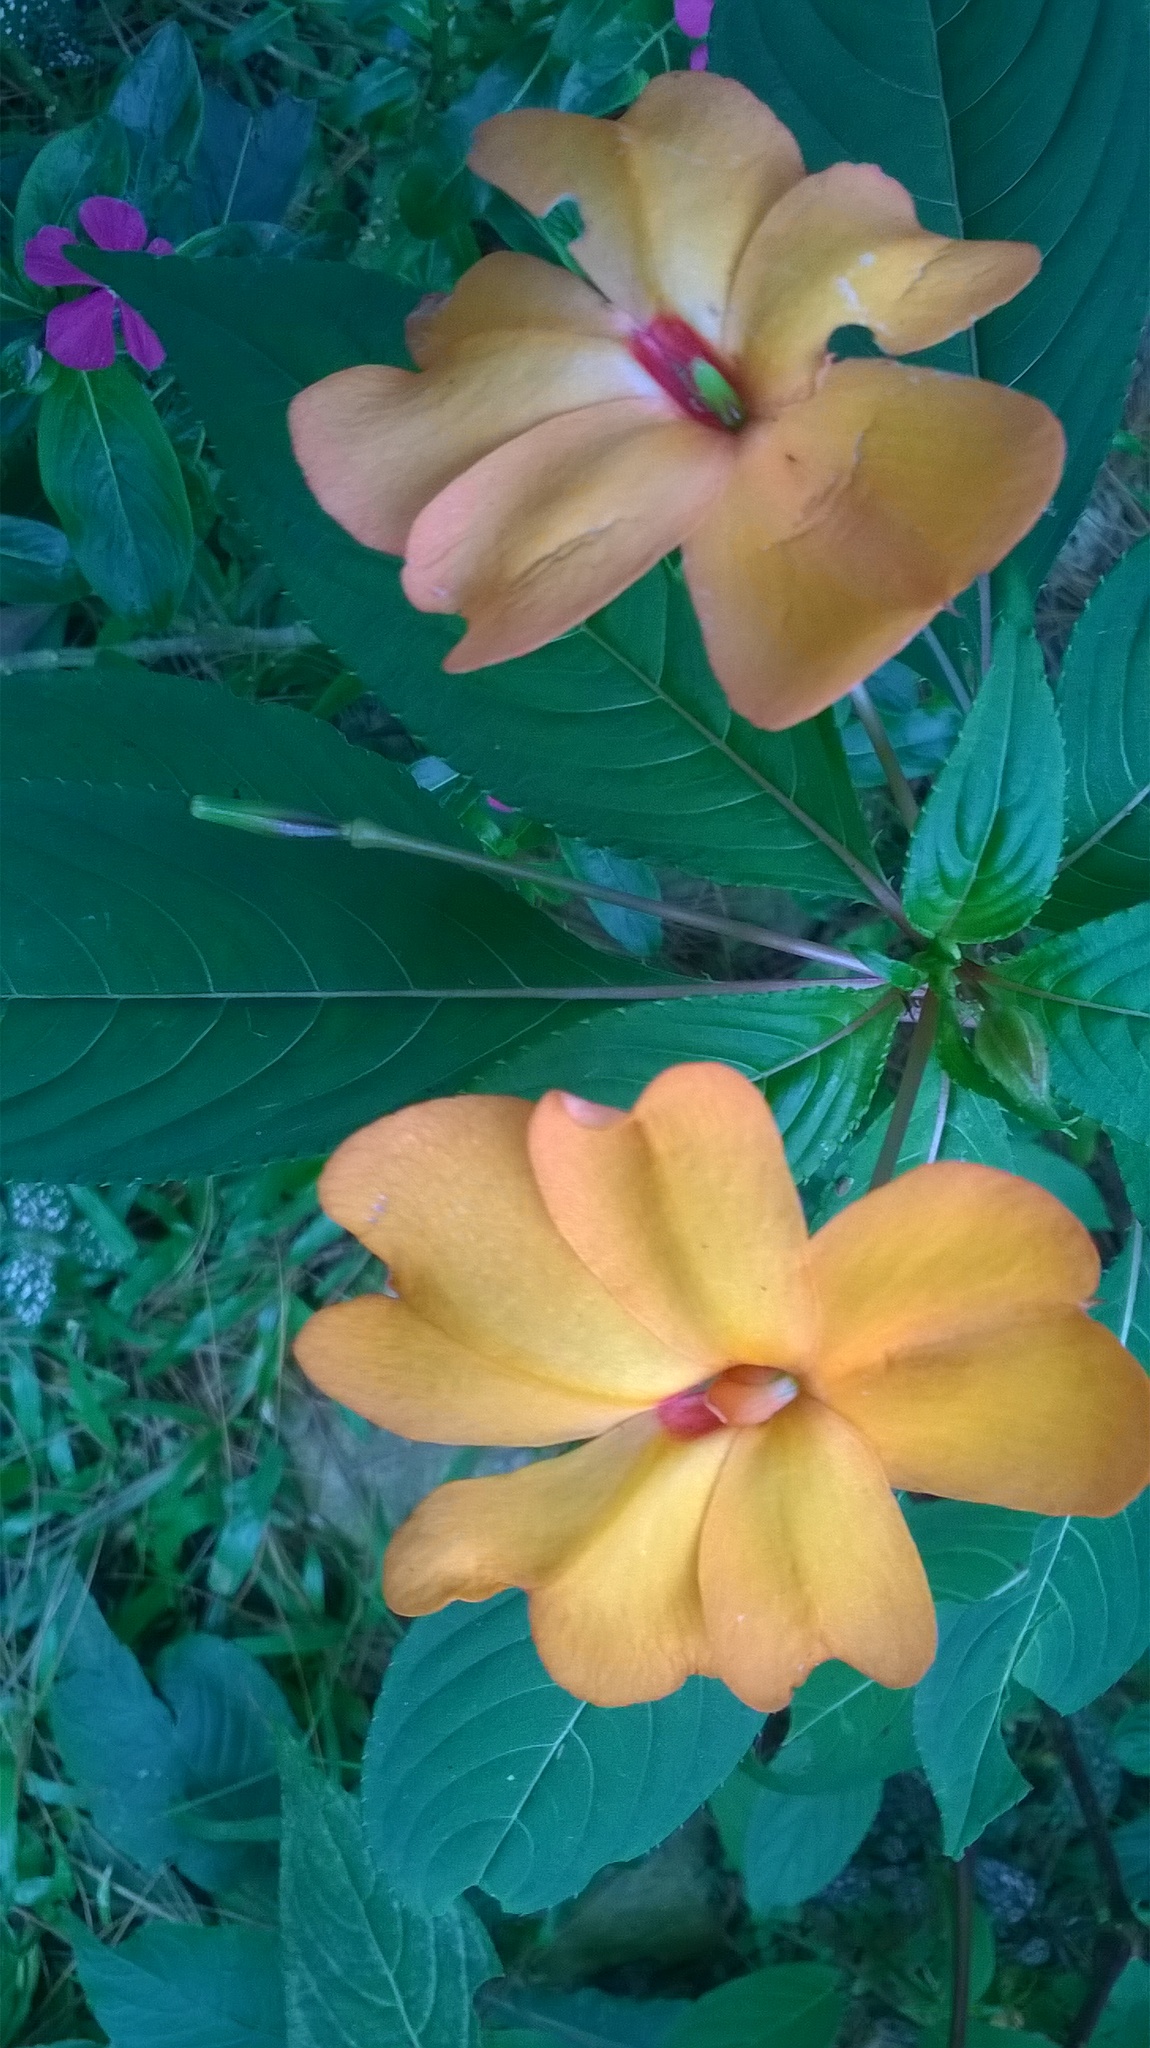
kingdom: Plantae
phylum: Tracheophyta
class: Magnoliopsida
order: Ericales
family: Balsaminaceae
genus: Impatiens
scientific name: Impatiens platypetala
